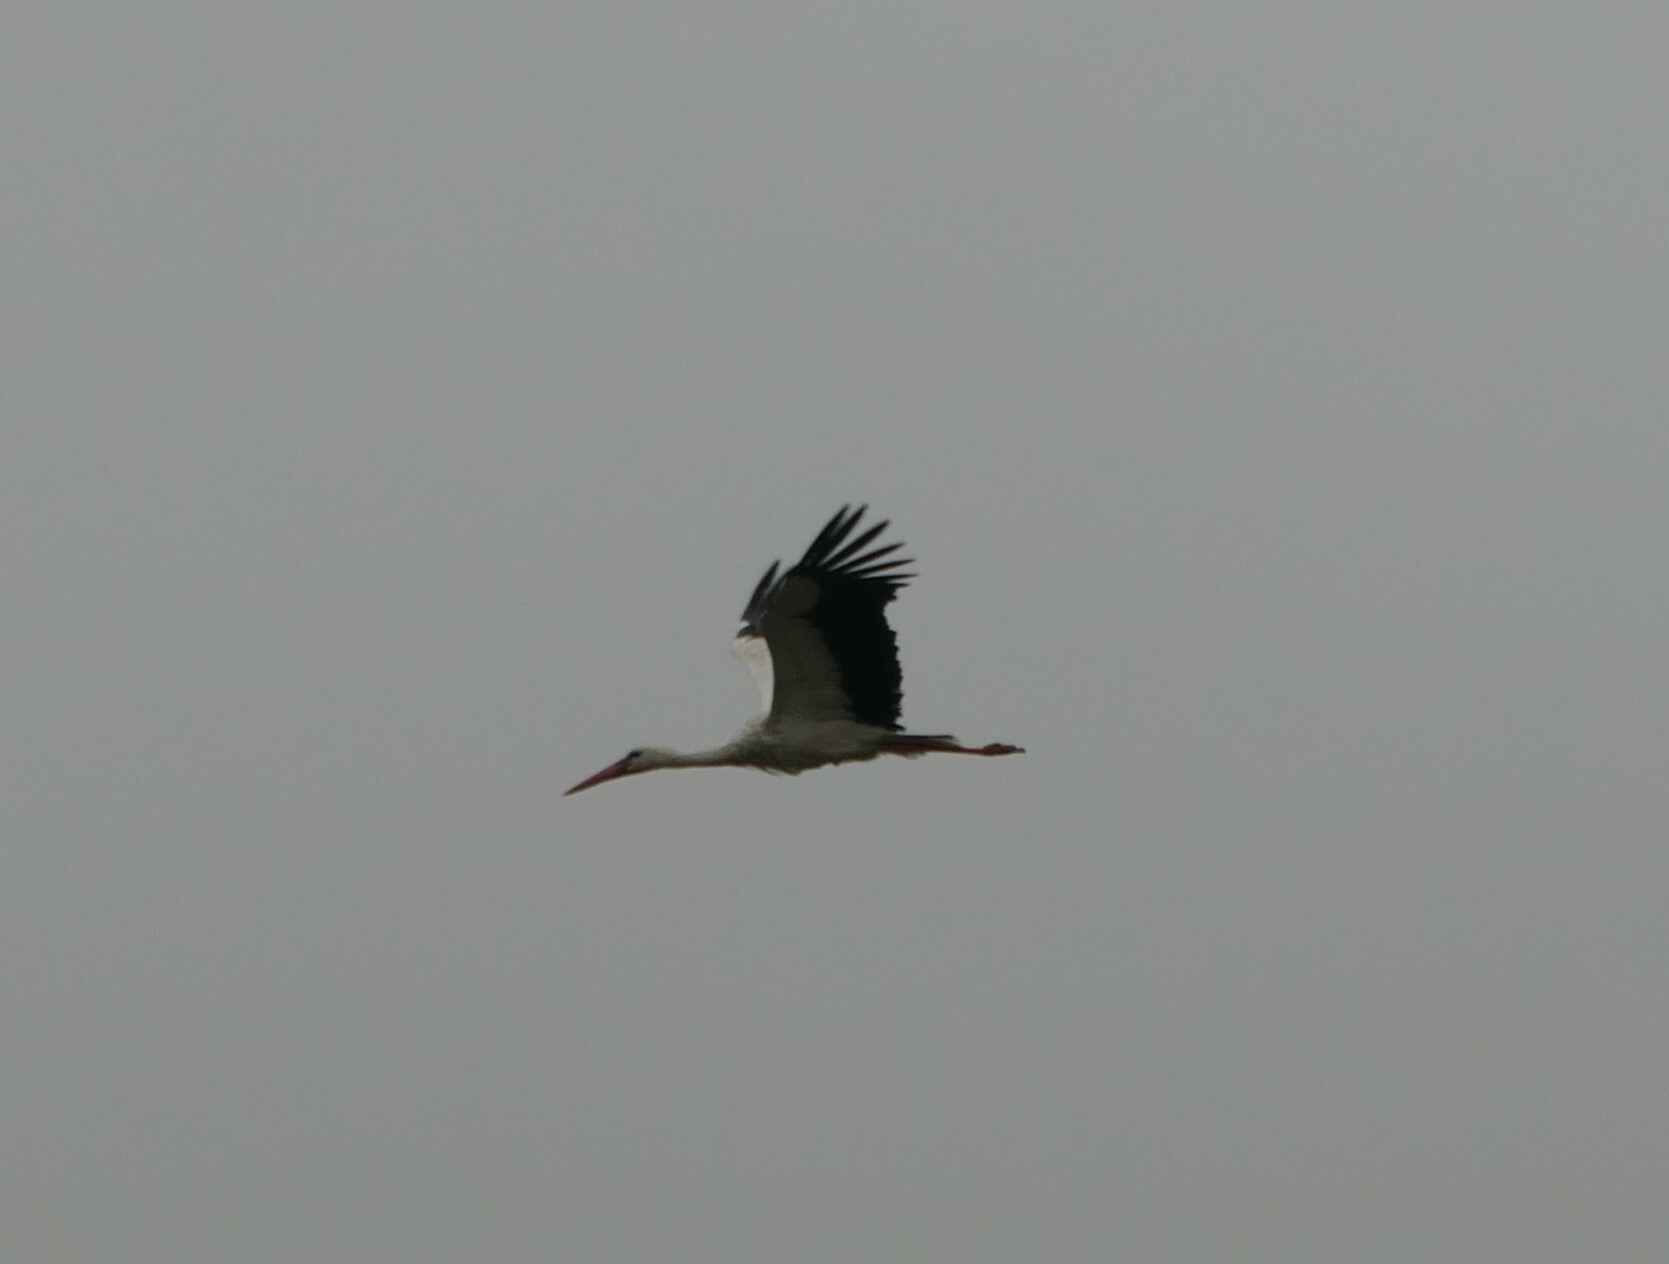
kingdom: Animalia
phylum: Chordata
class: Aves
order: Ciconiiformes
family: Ciconiidae
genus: Ciconia
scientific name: Ciconia ciconia
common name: White stork
